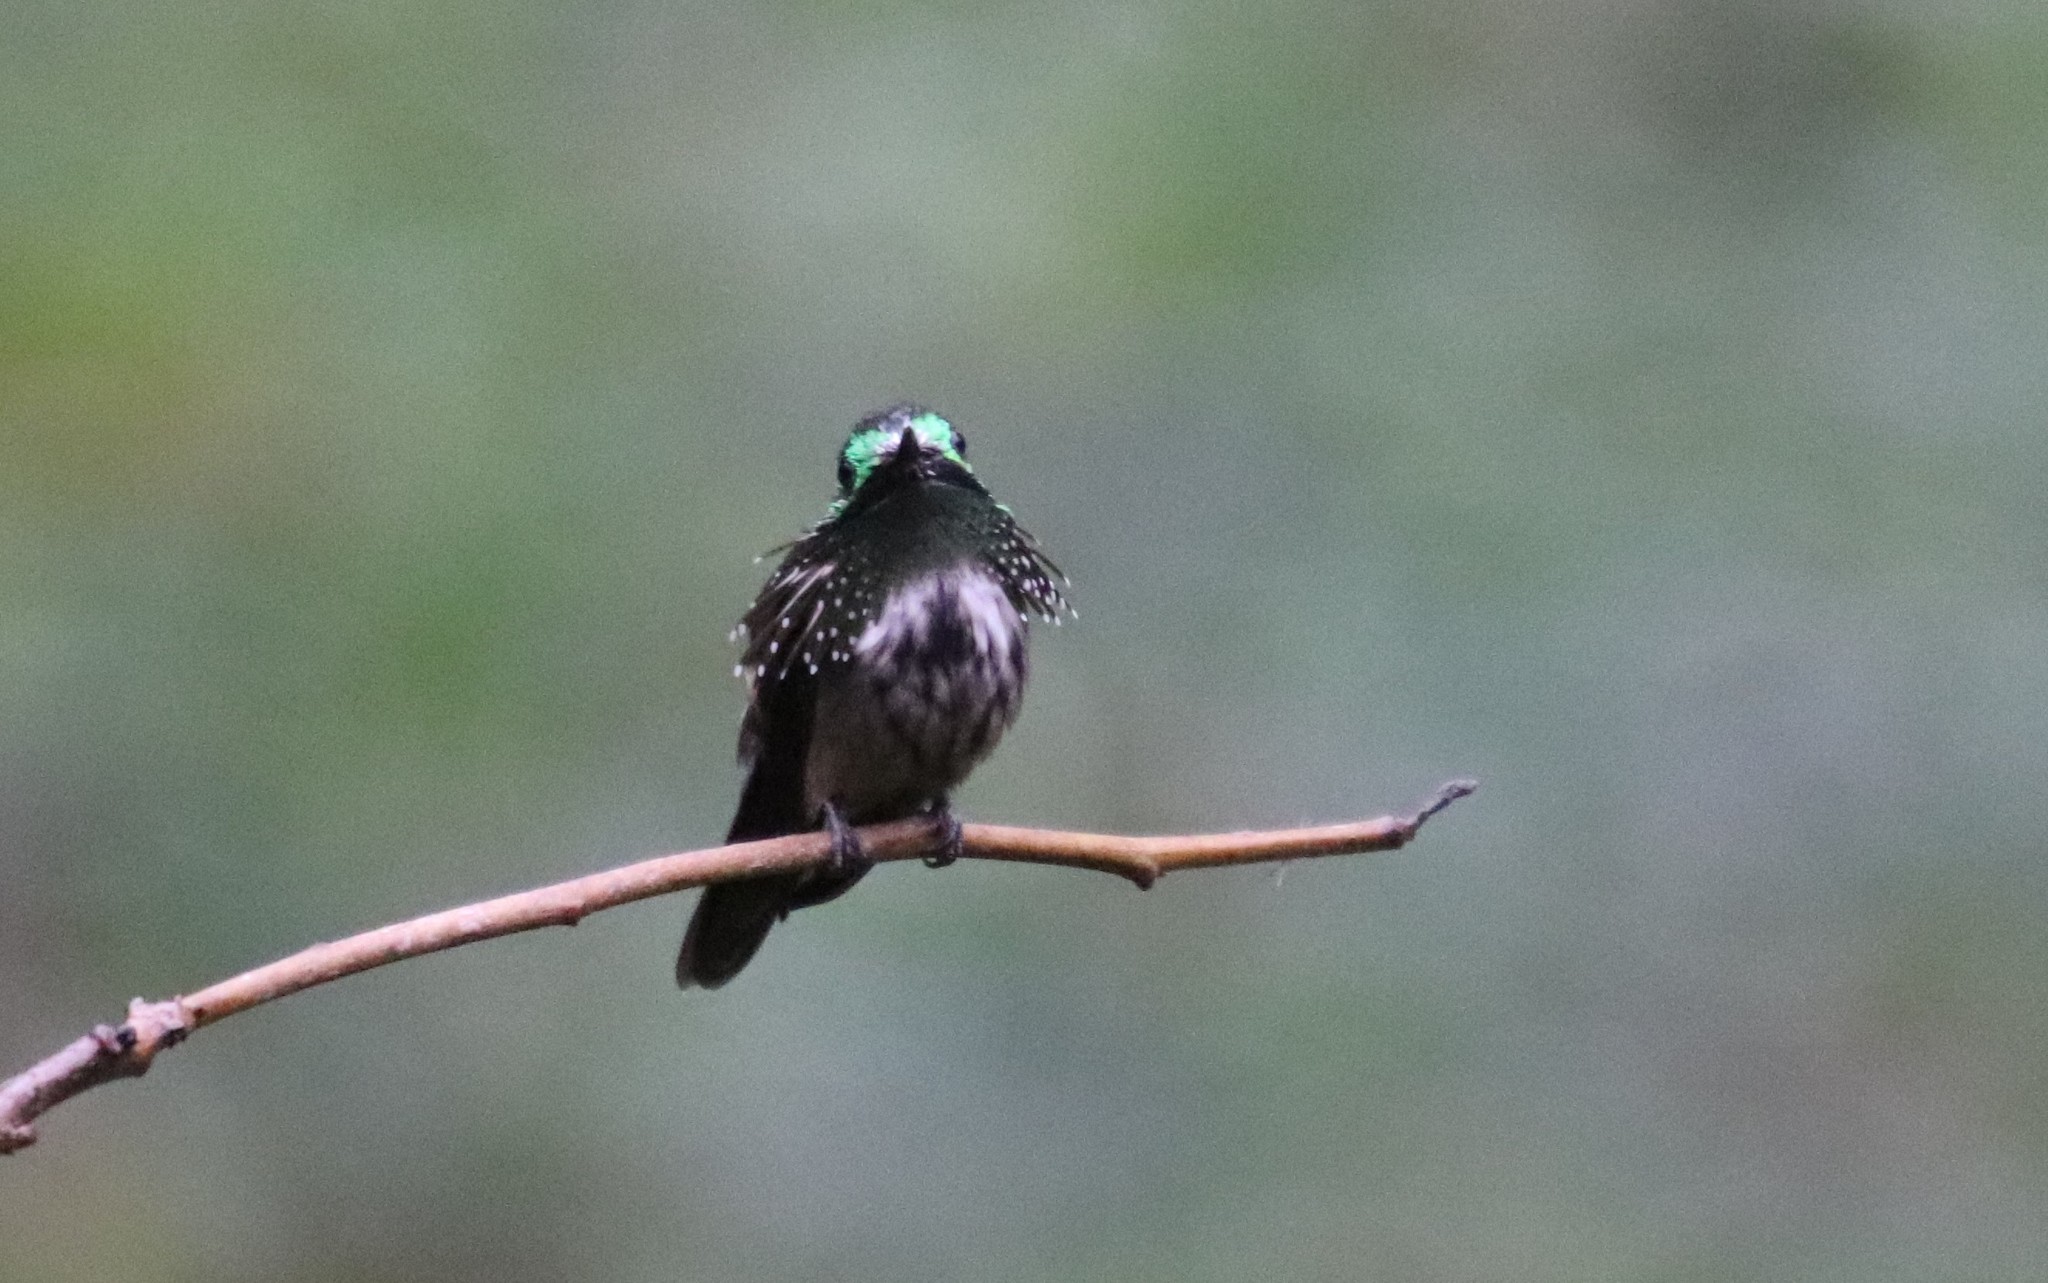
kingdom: Animalia
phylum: Chordata
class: Aves
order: Apodiformes
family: Trochilidae
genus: Lophornis
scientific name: Lophornis chalybeus
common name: Festive coquette
